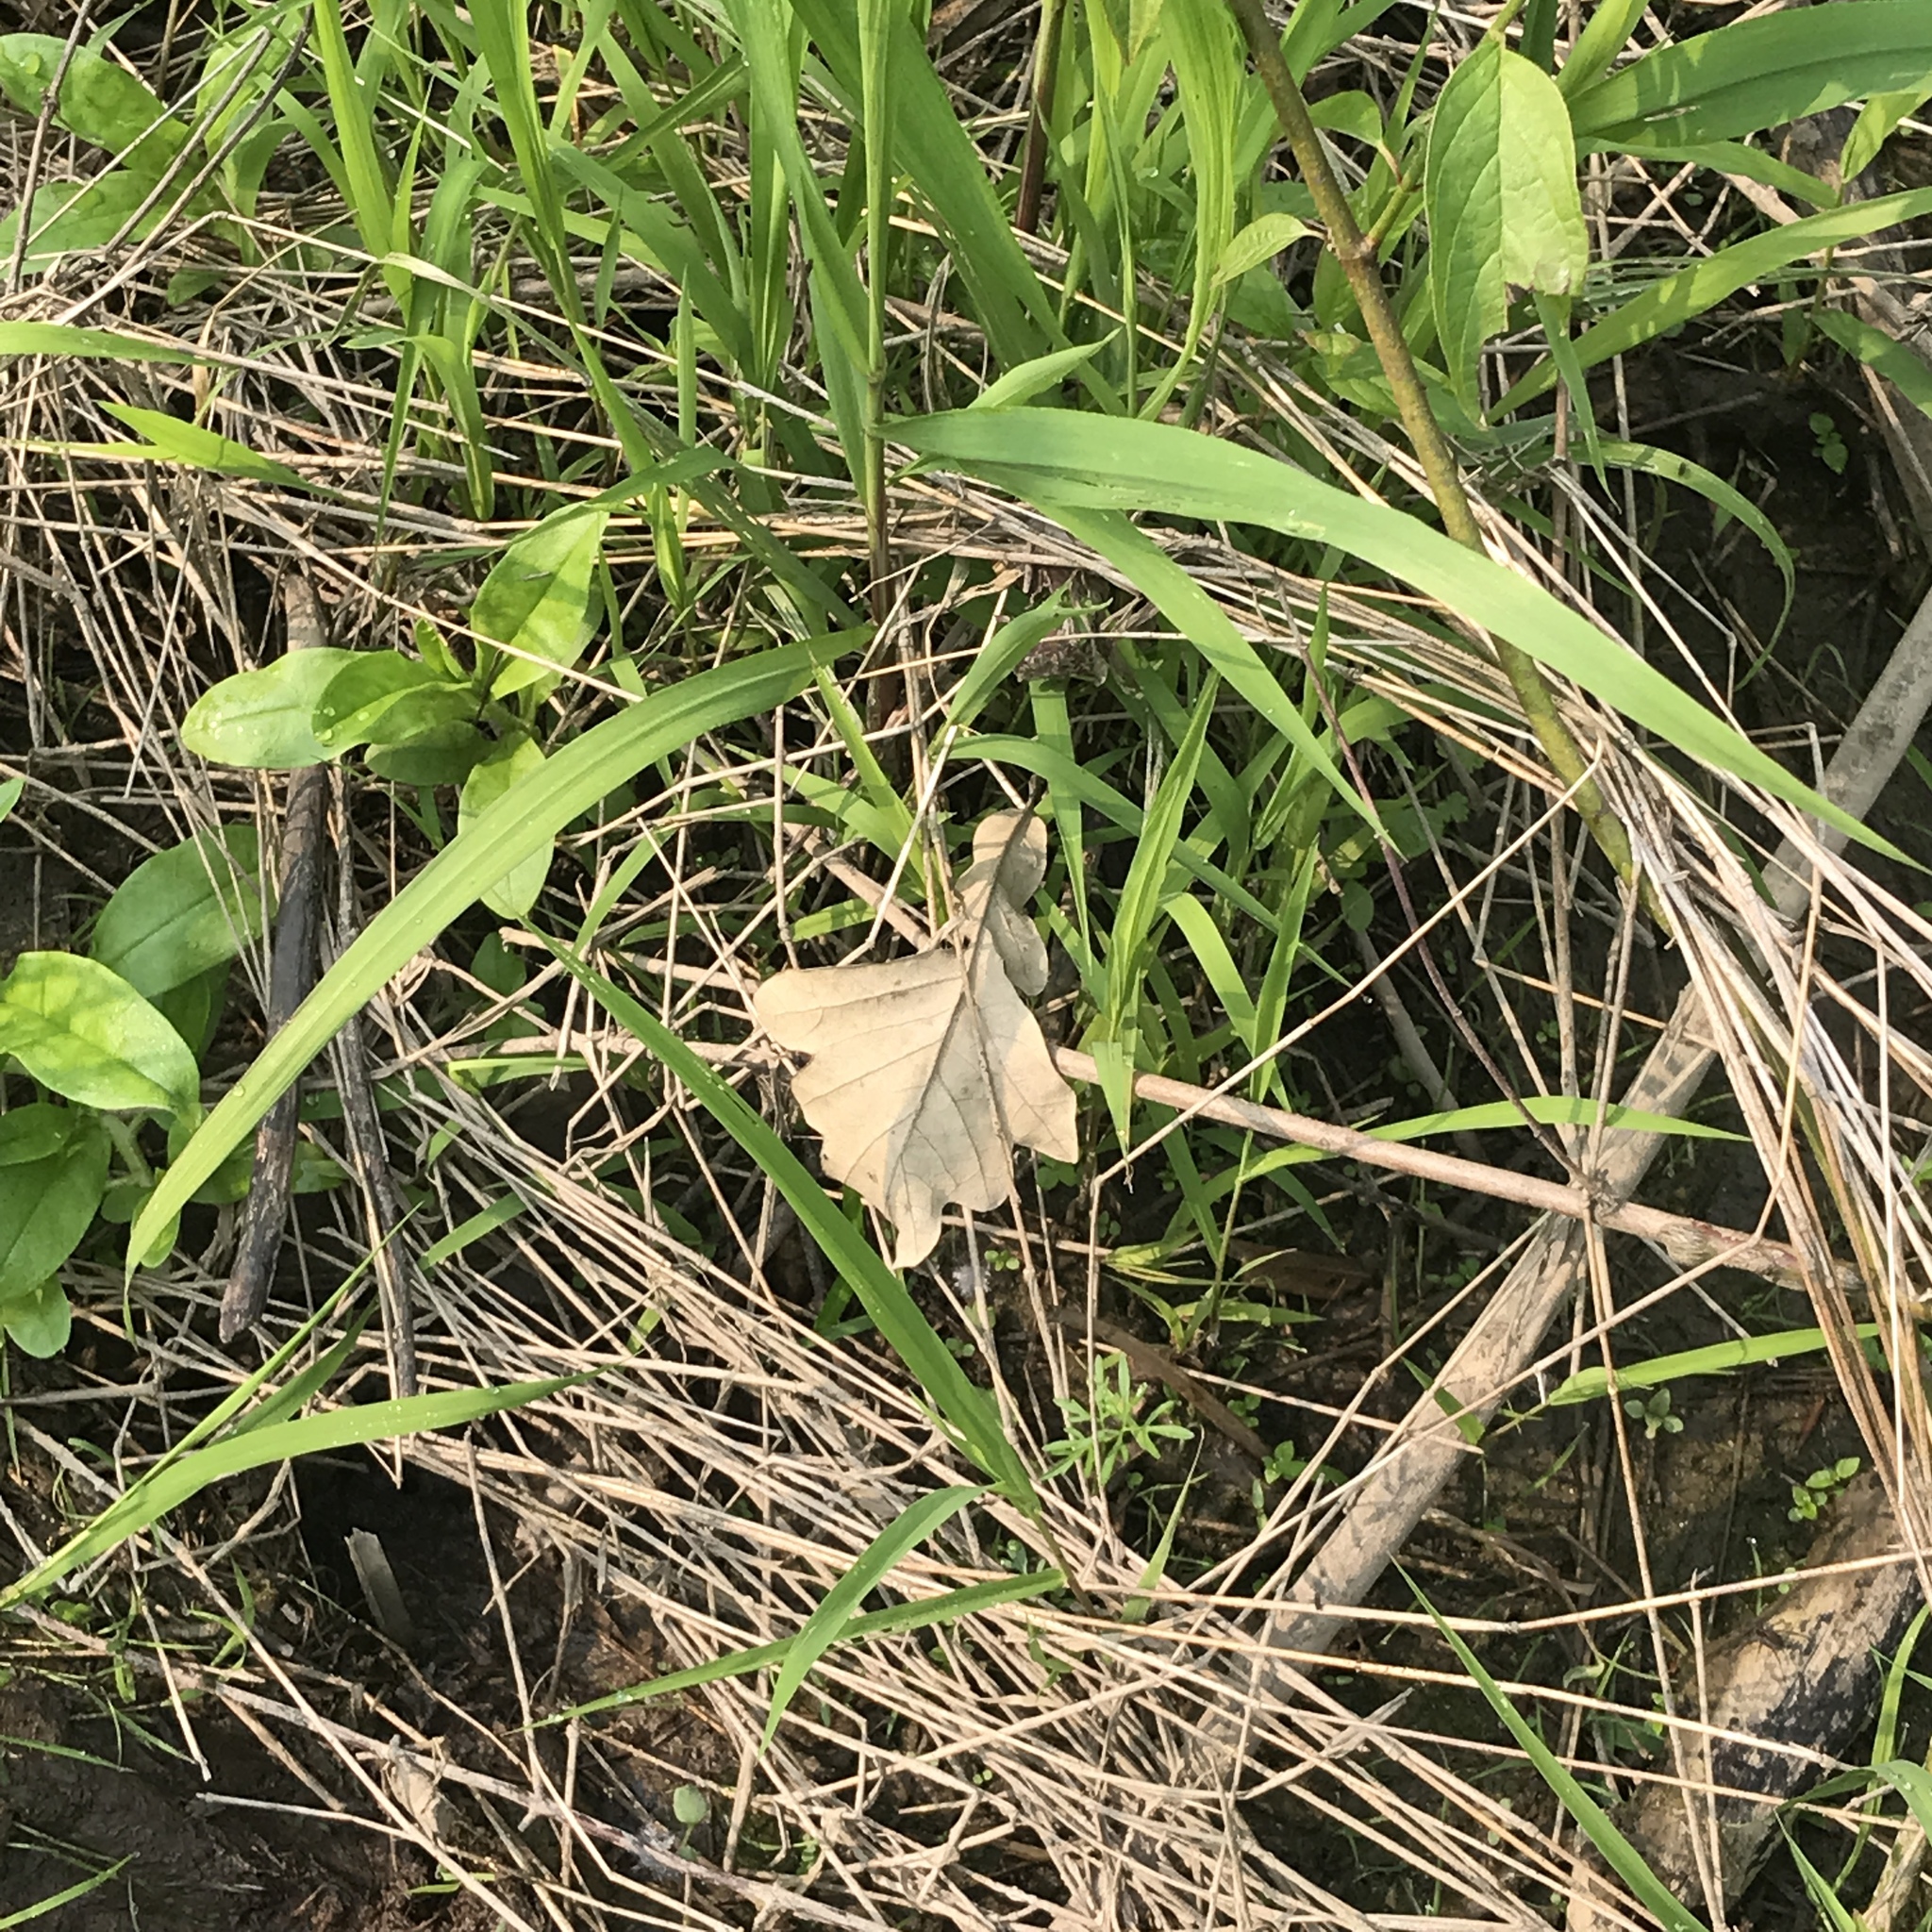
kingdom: Plantae
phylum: Tracheophyta
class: Magnoliopsida
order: Fagales
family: Fagaceae
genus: Quercus
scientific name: Quercus macrocarpa
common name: Bur oak
